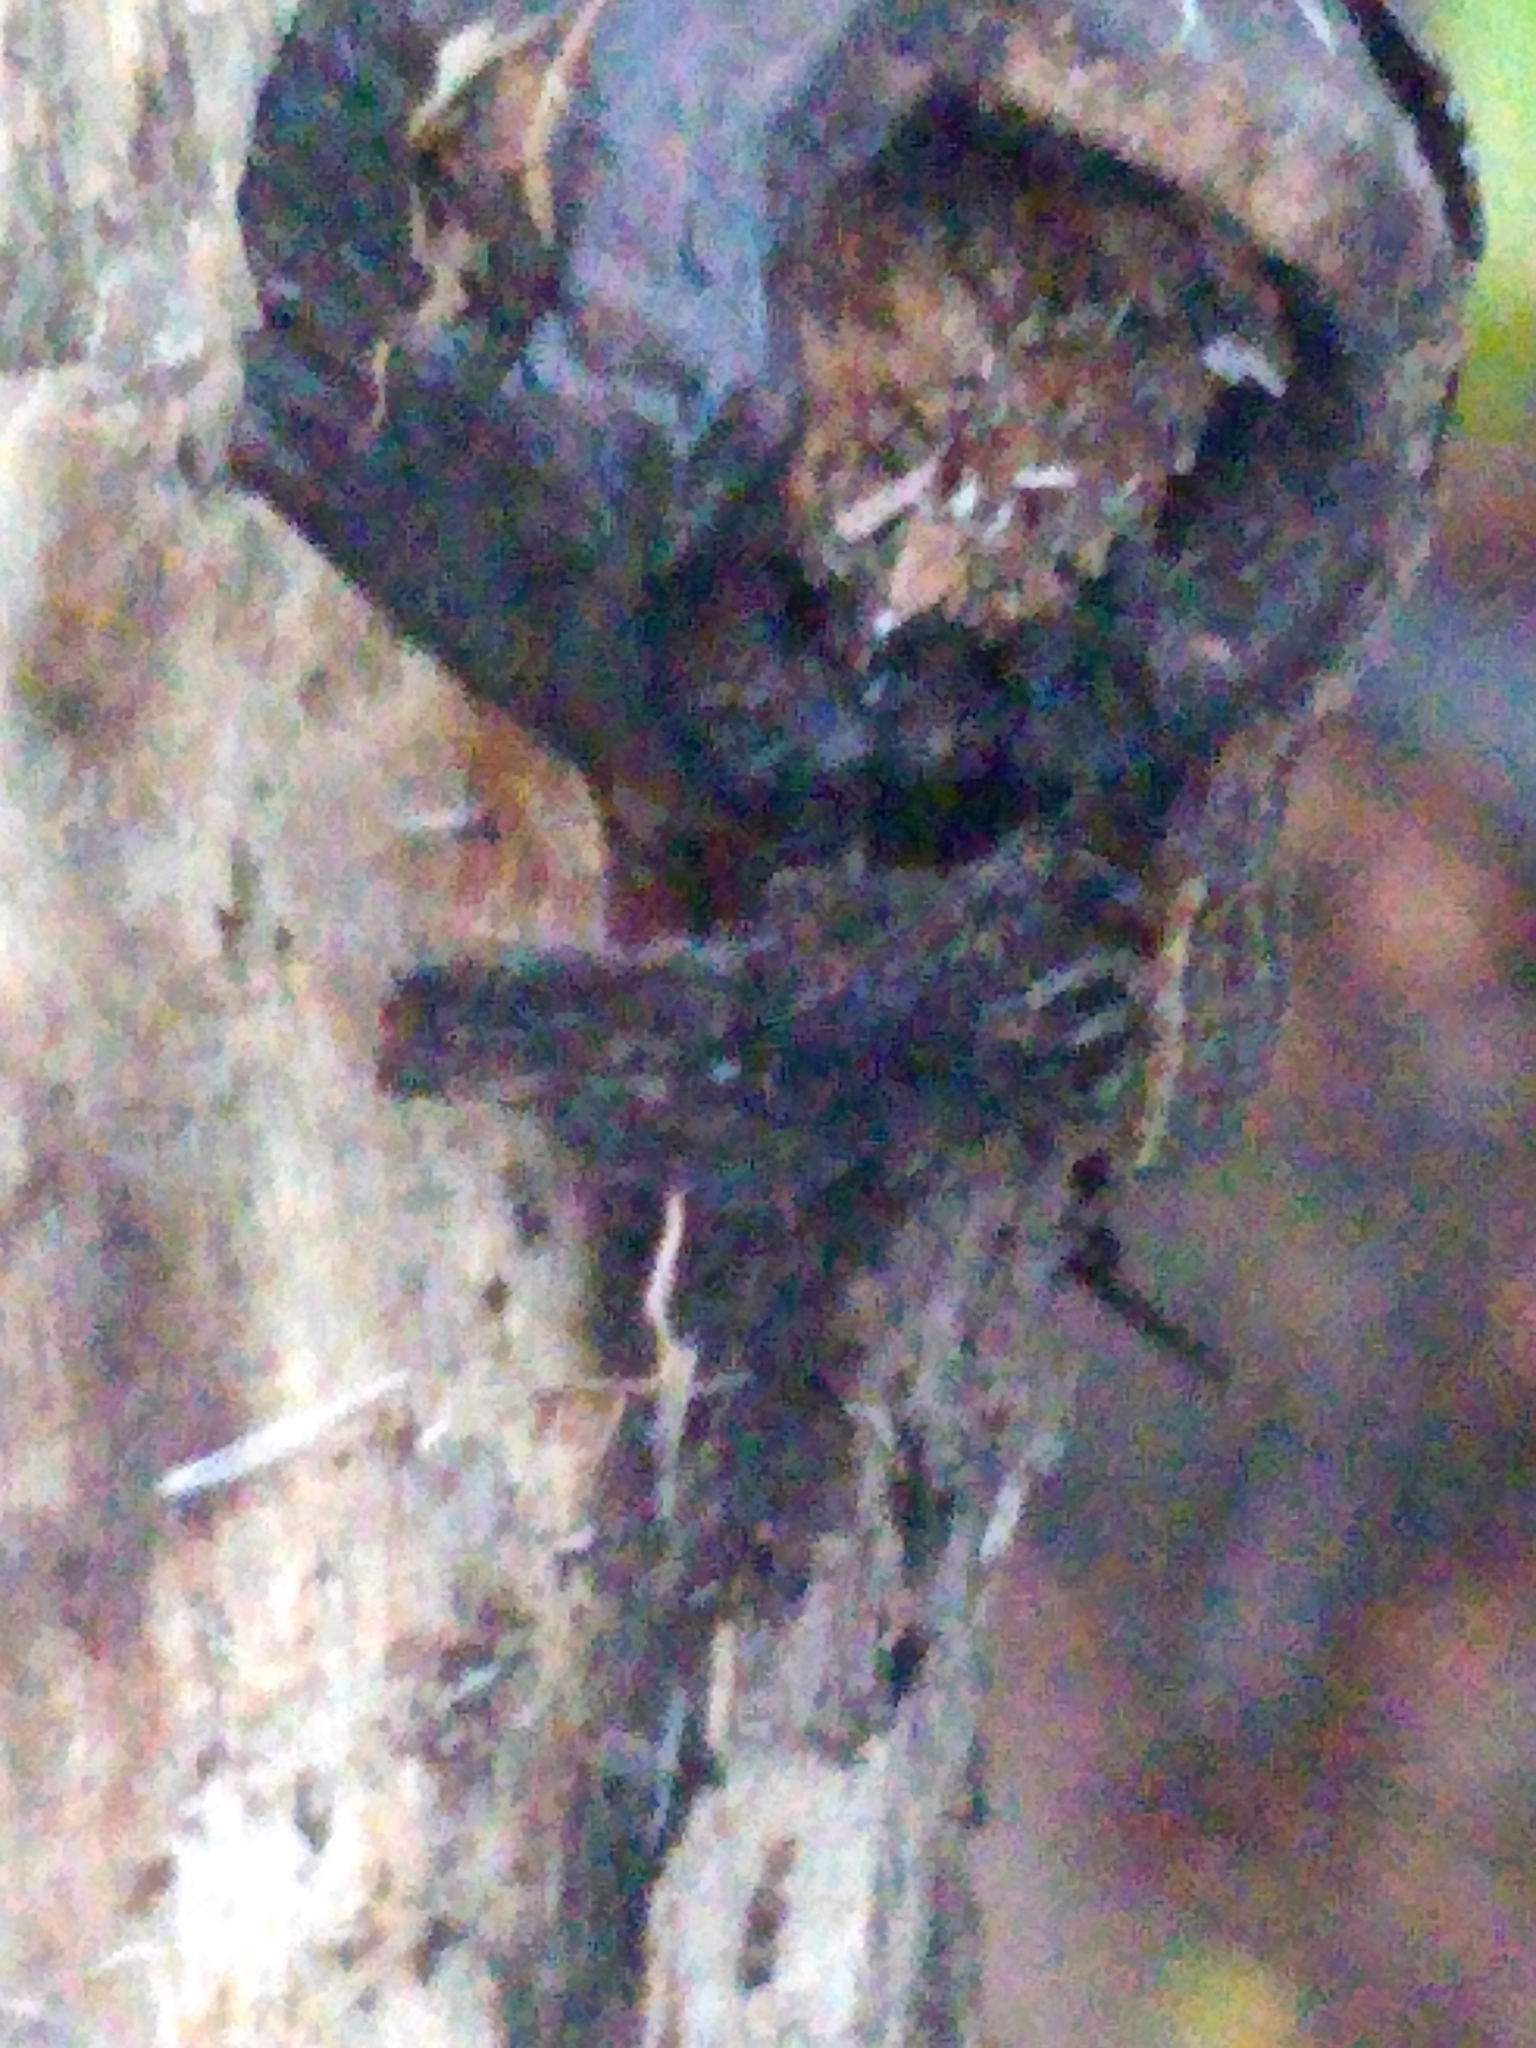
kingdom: Animalia
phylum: Arthropoda
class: Malacostraca
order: Isopoda
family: Philosciidae
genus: Philoscia
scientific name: Philoscia muscorum
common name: Common striped woodlouse
